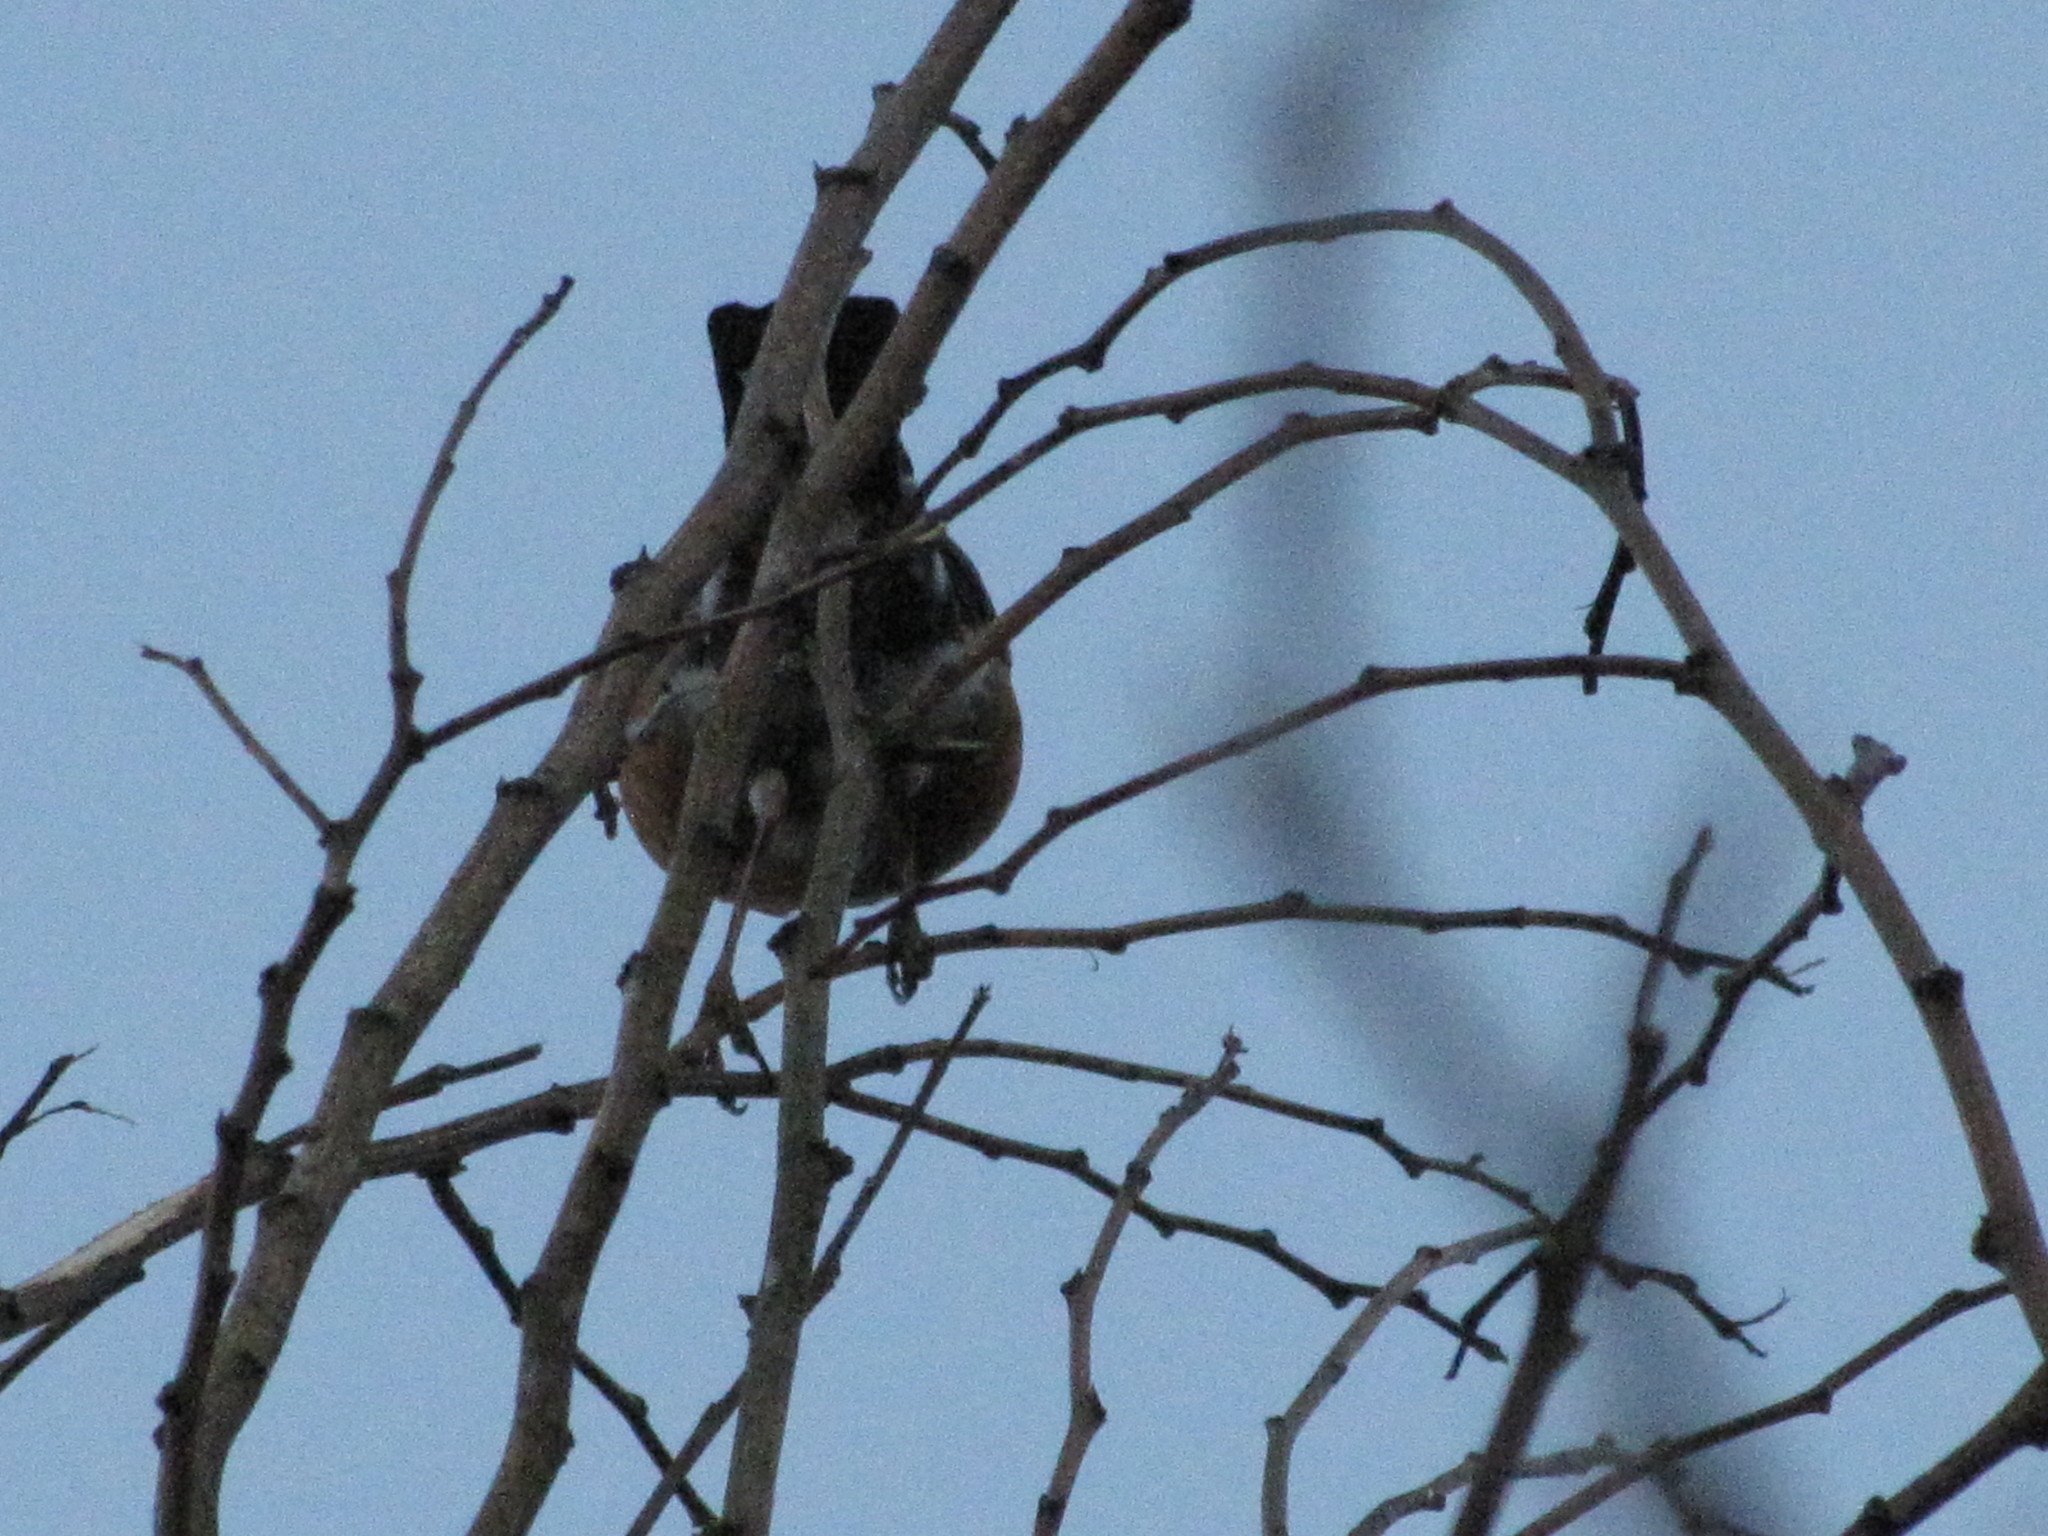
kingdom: Animalia
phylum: Chordata
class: Aves
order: Passeriformes
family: Passerellidae
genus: Pipilo
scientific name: Pipilo maculatus
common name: Spotted towhee
